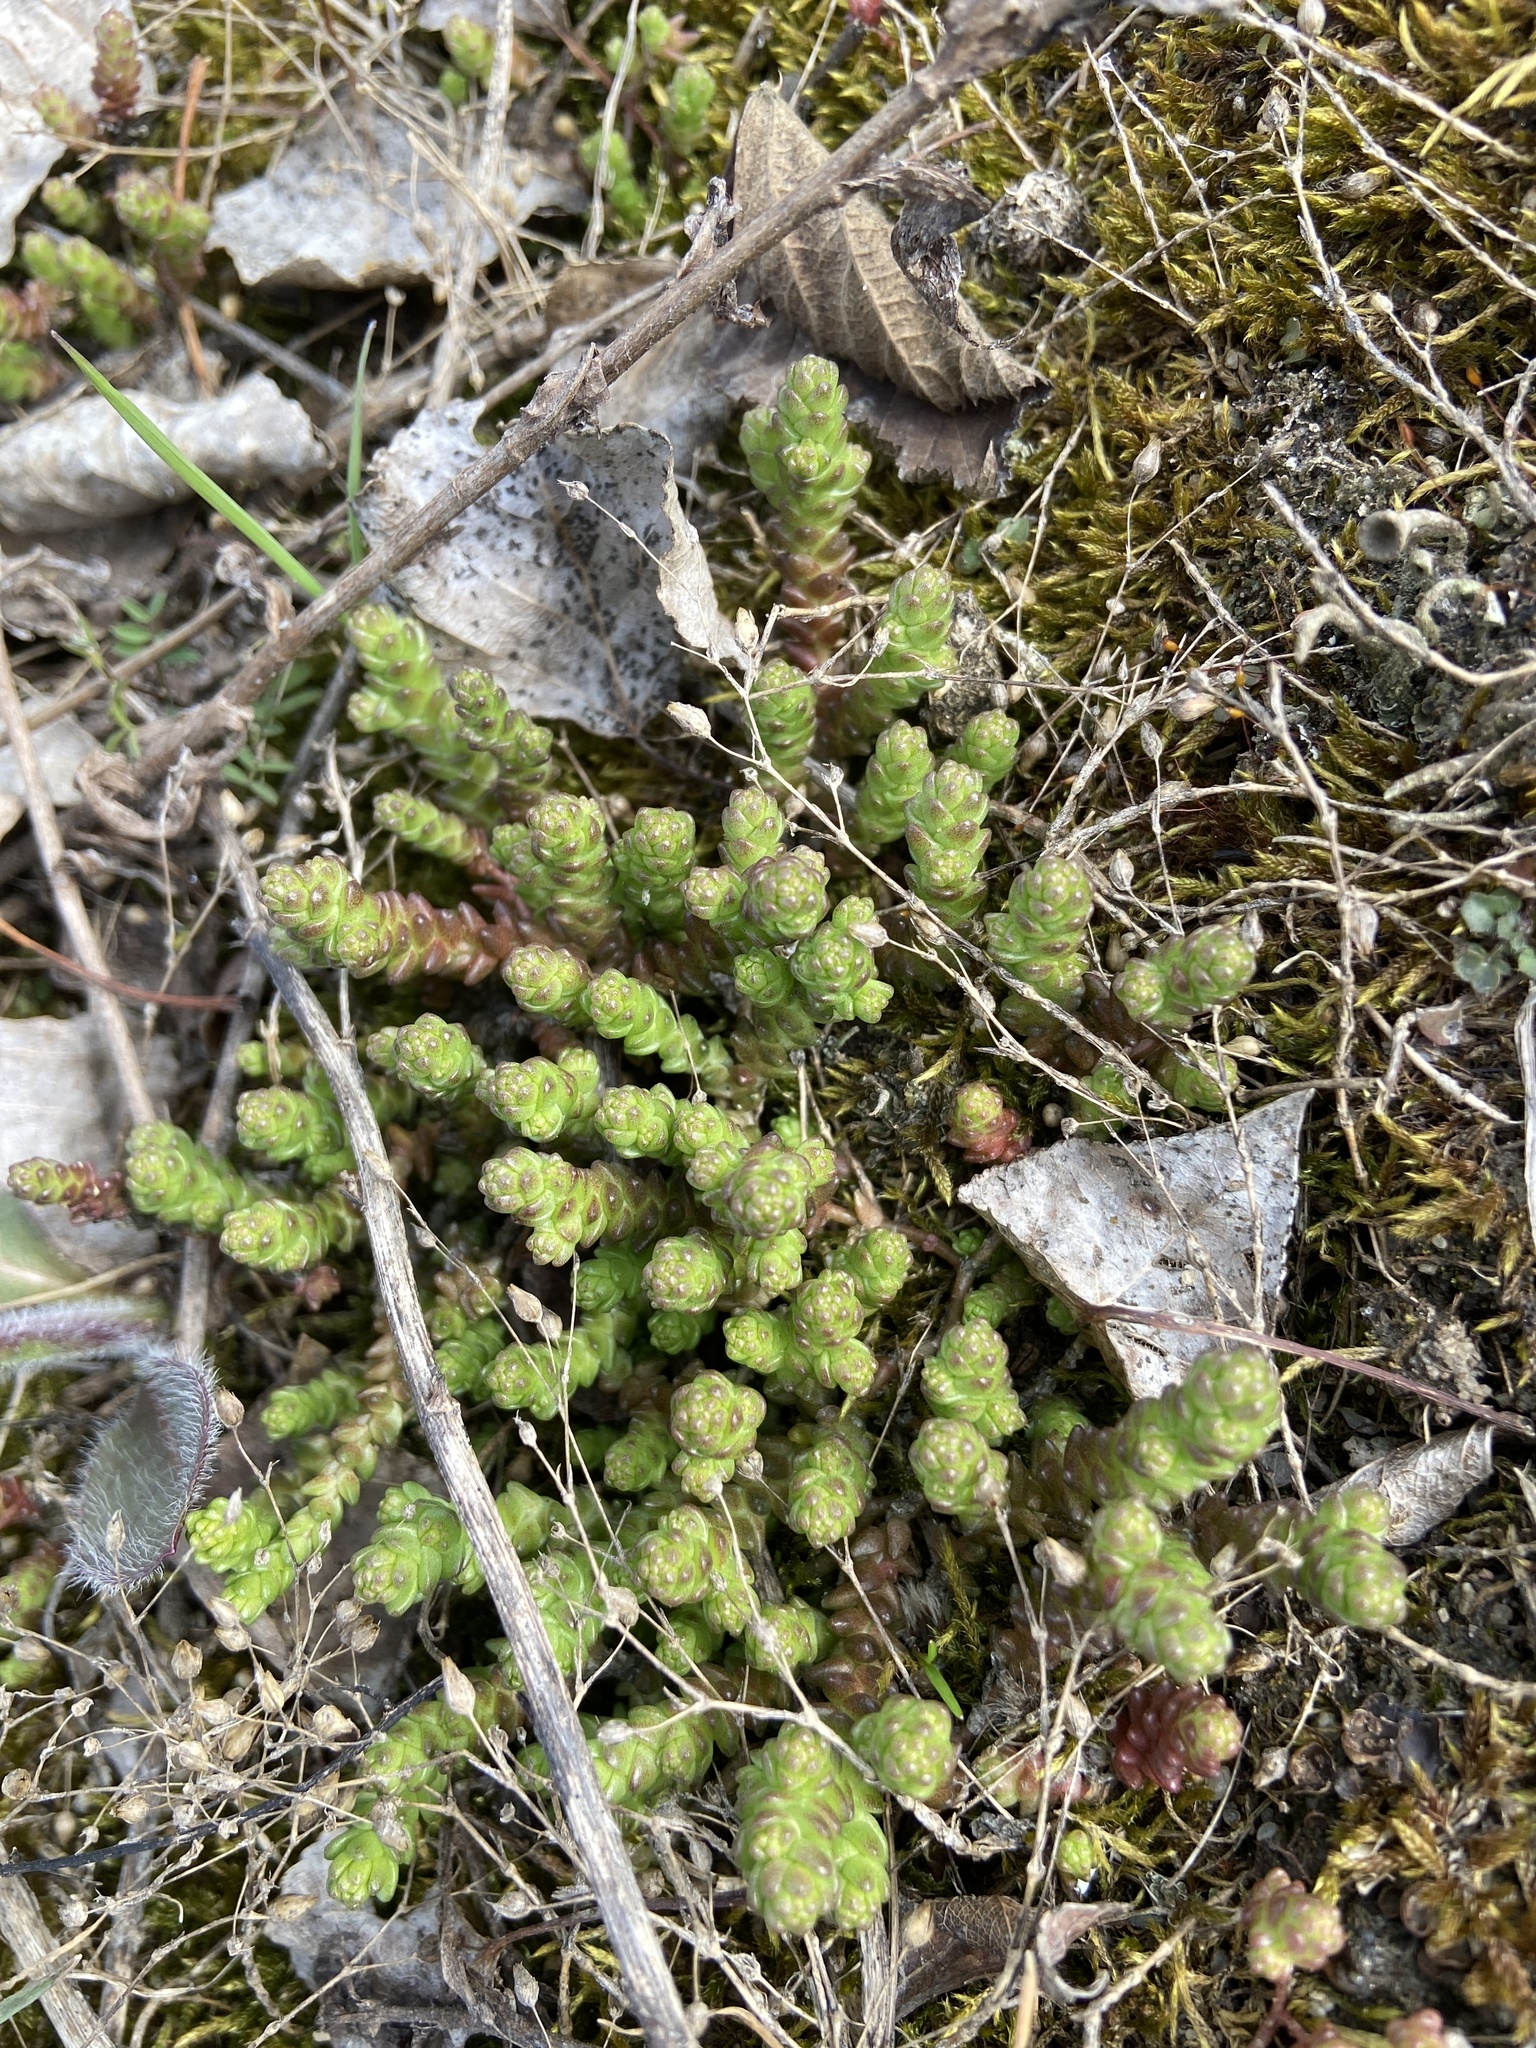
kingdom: Plantae
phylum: Tracheophyta
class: Magnoliopsida
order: Saxifragales
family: Crassulaceae
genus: Sedum
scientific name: Sedum acre
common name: Biting stonecrop
